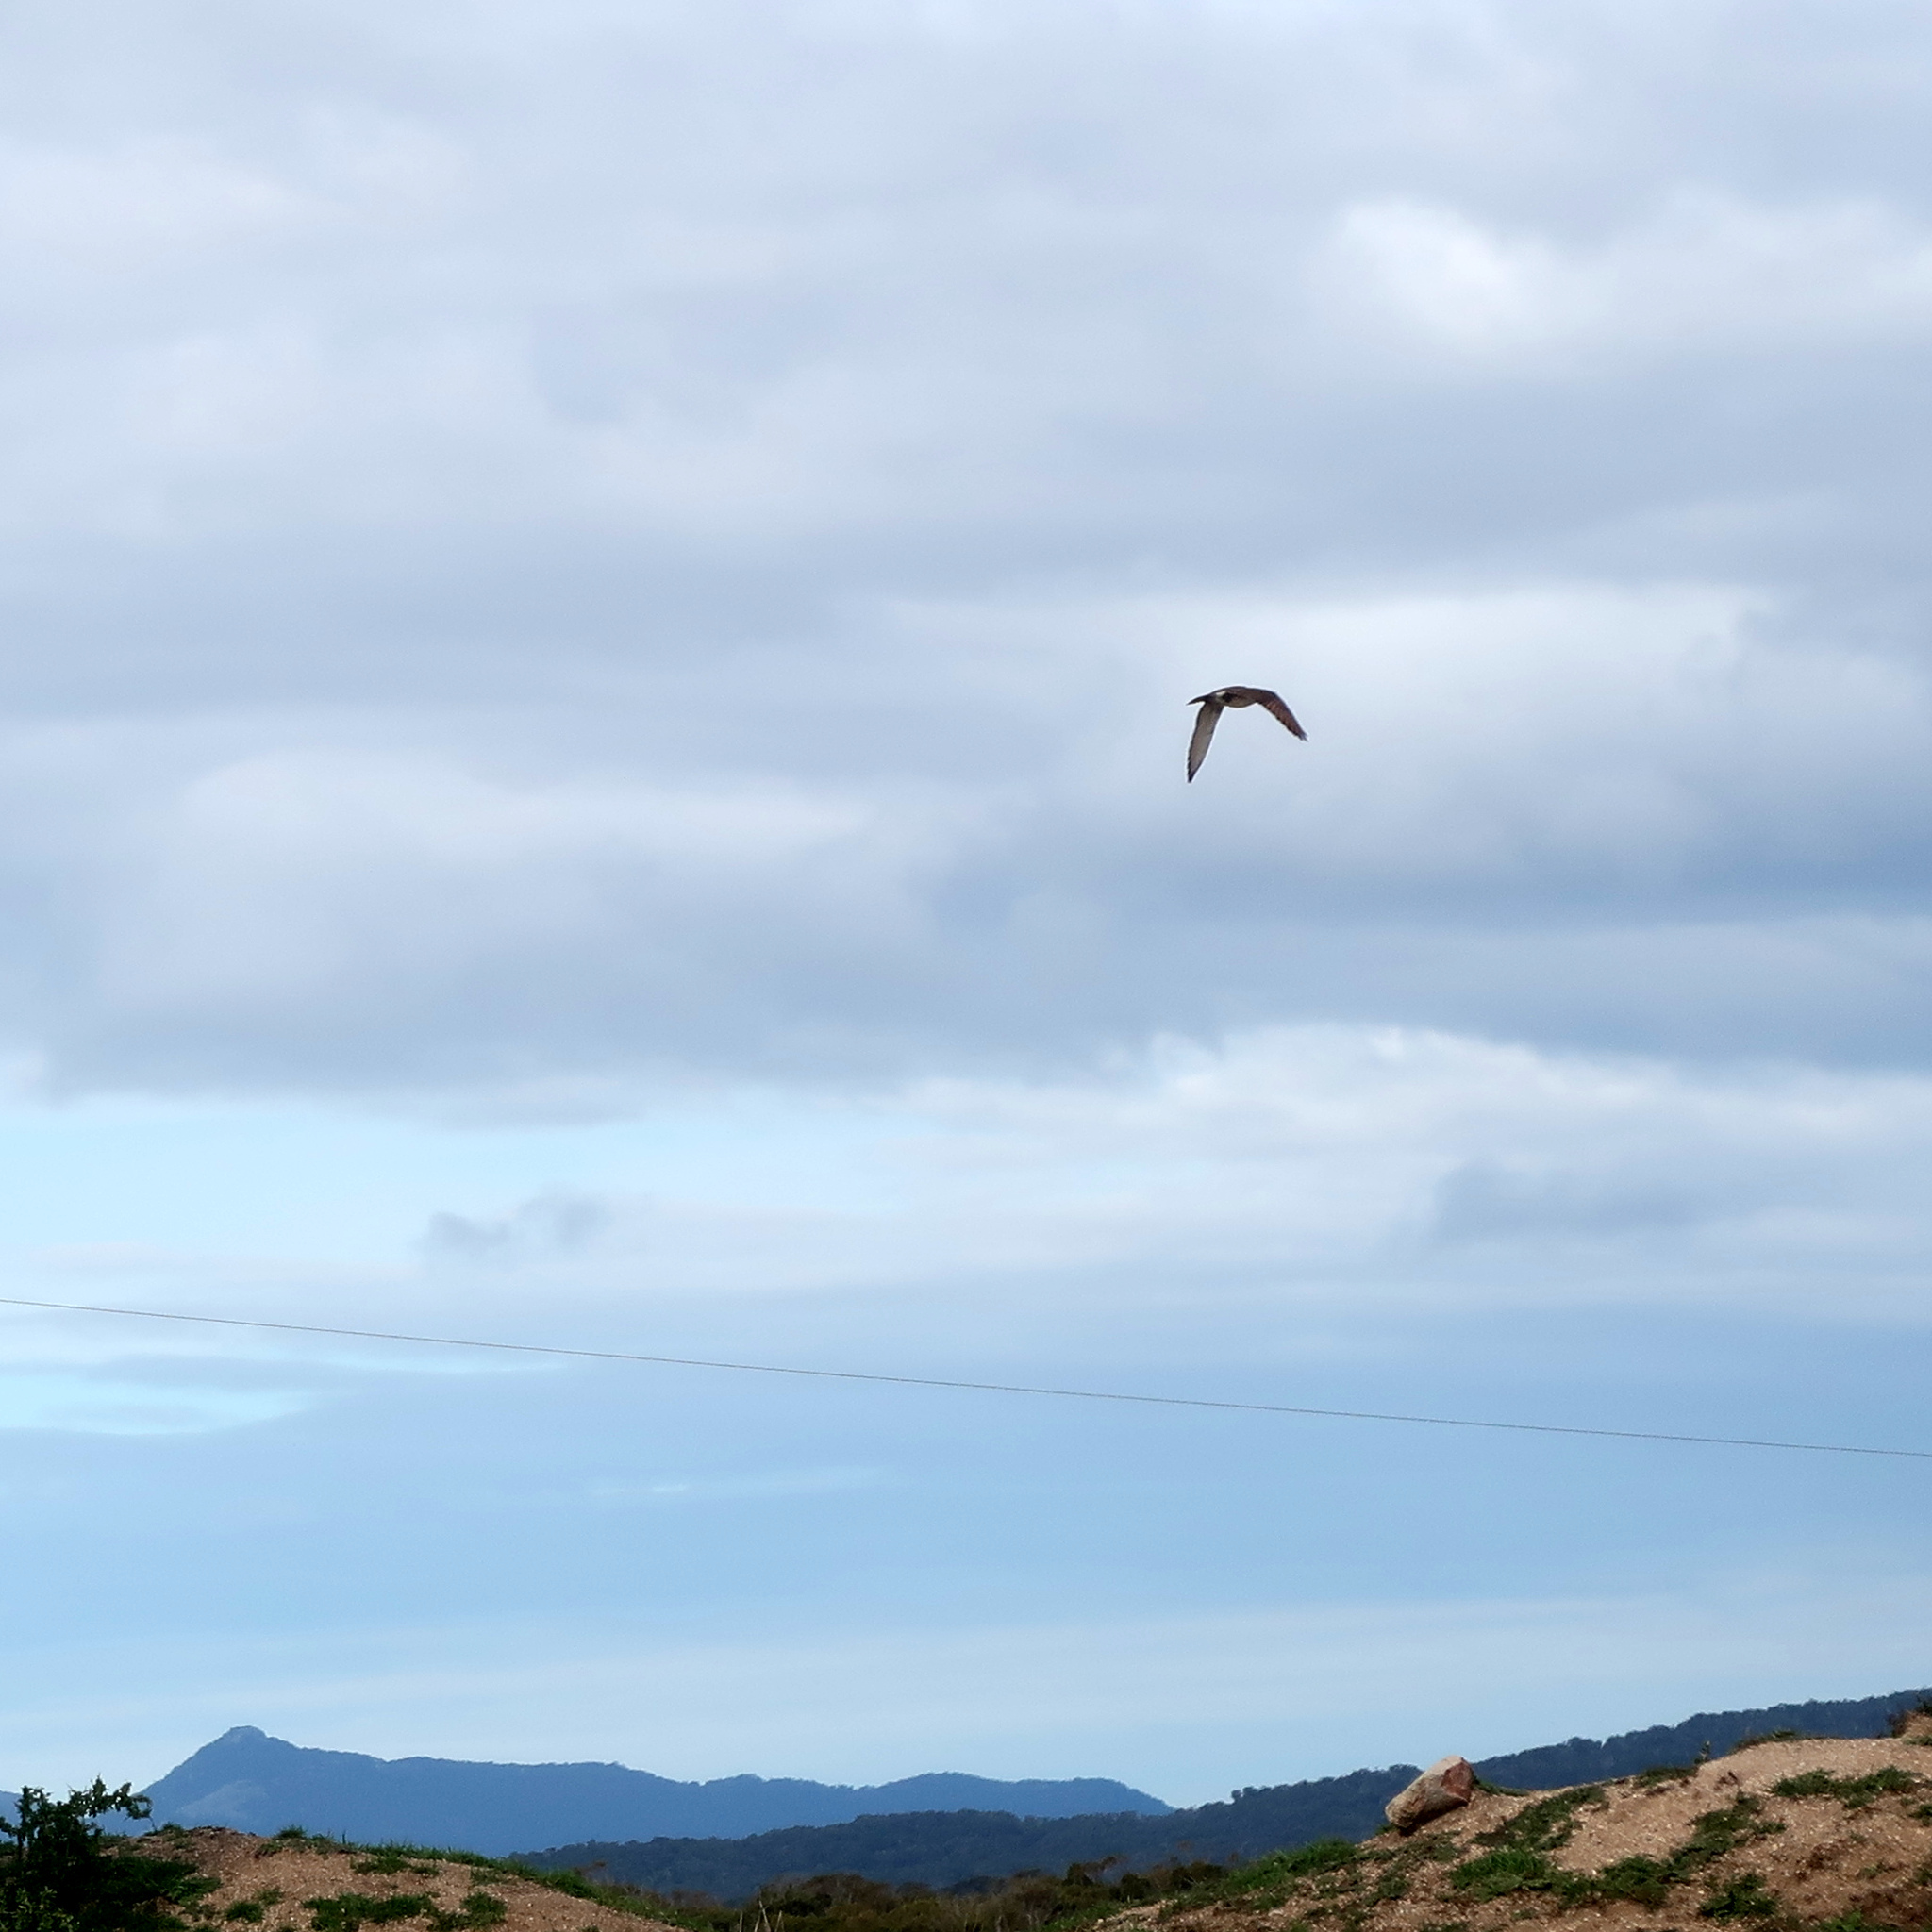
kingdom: Animalia
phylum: Chordata
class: Aves
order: Falconiformes
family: Falconidae
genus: Falco
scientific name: Falco berigora
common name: Brown falcon
